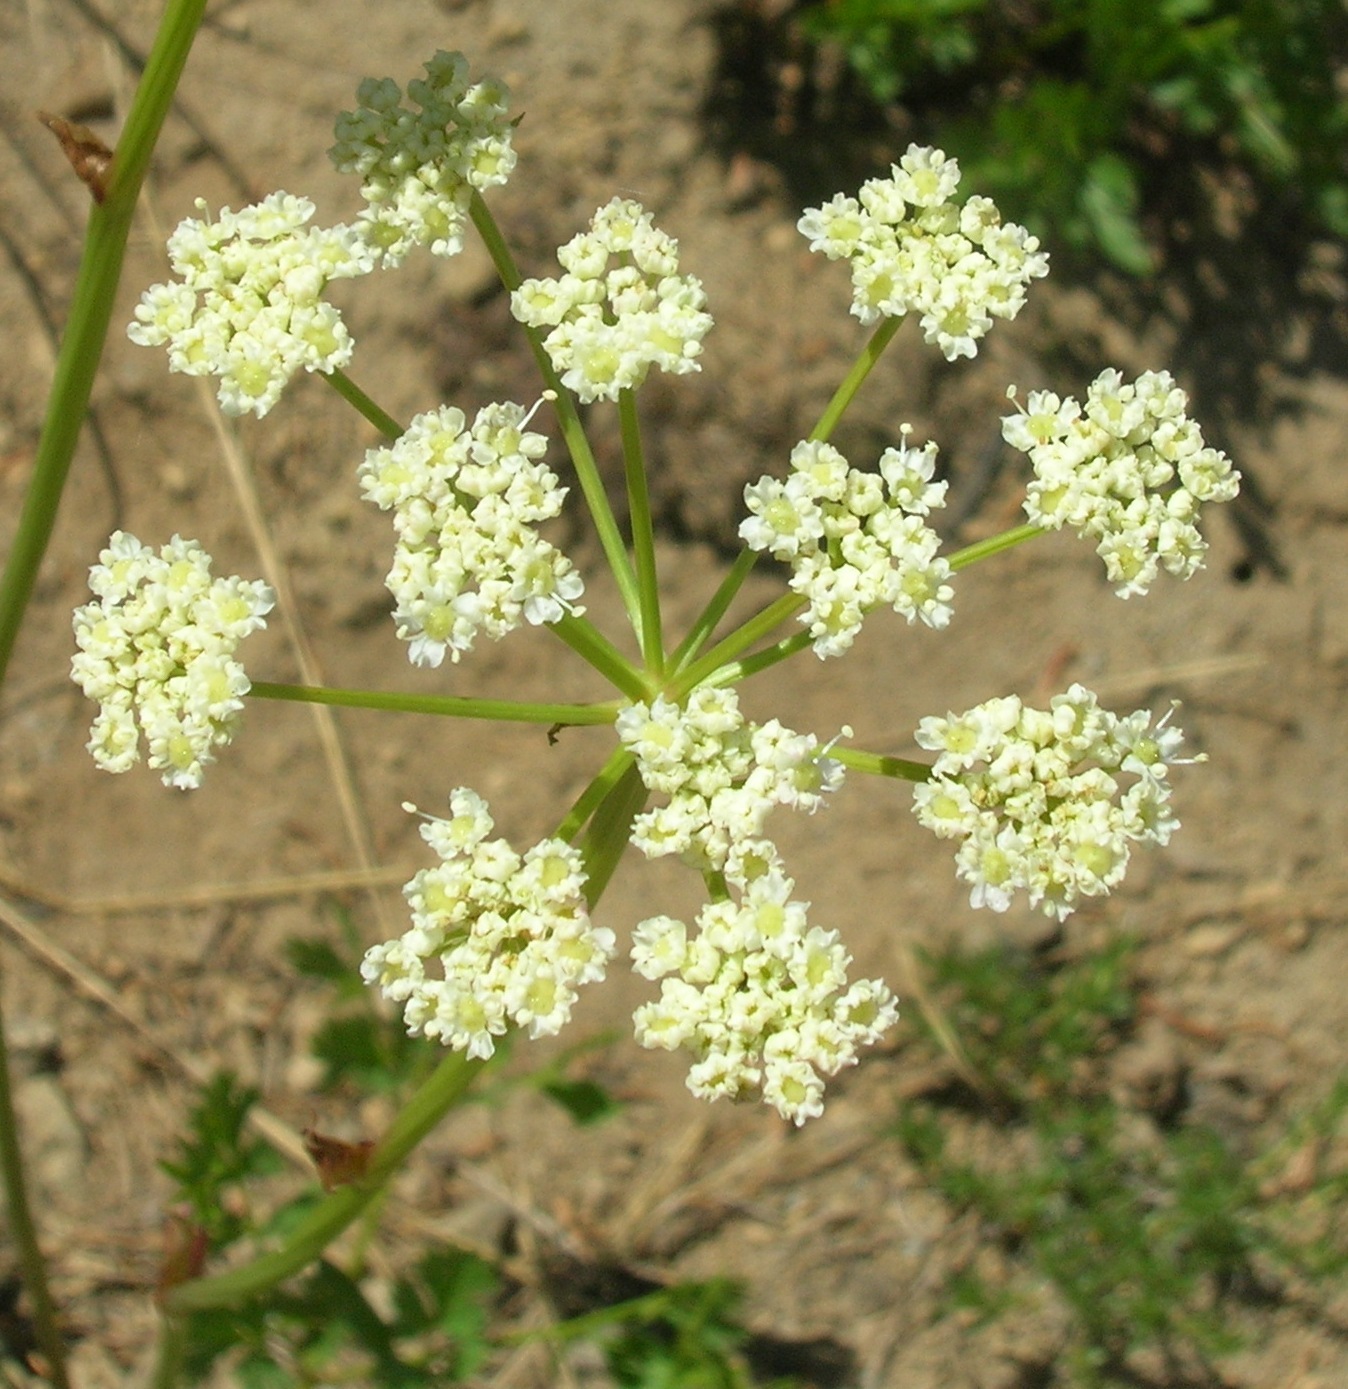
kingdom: Plantae
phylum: Tracheophyta
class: Magnoliopsida
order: Apiales
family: Apiaceae
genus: Lomatium
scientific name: Lomatium martindalei
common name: Cascade desert-parsley
